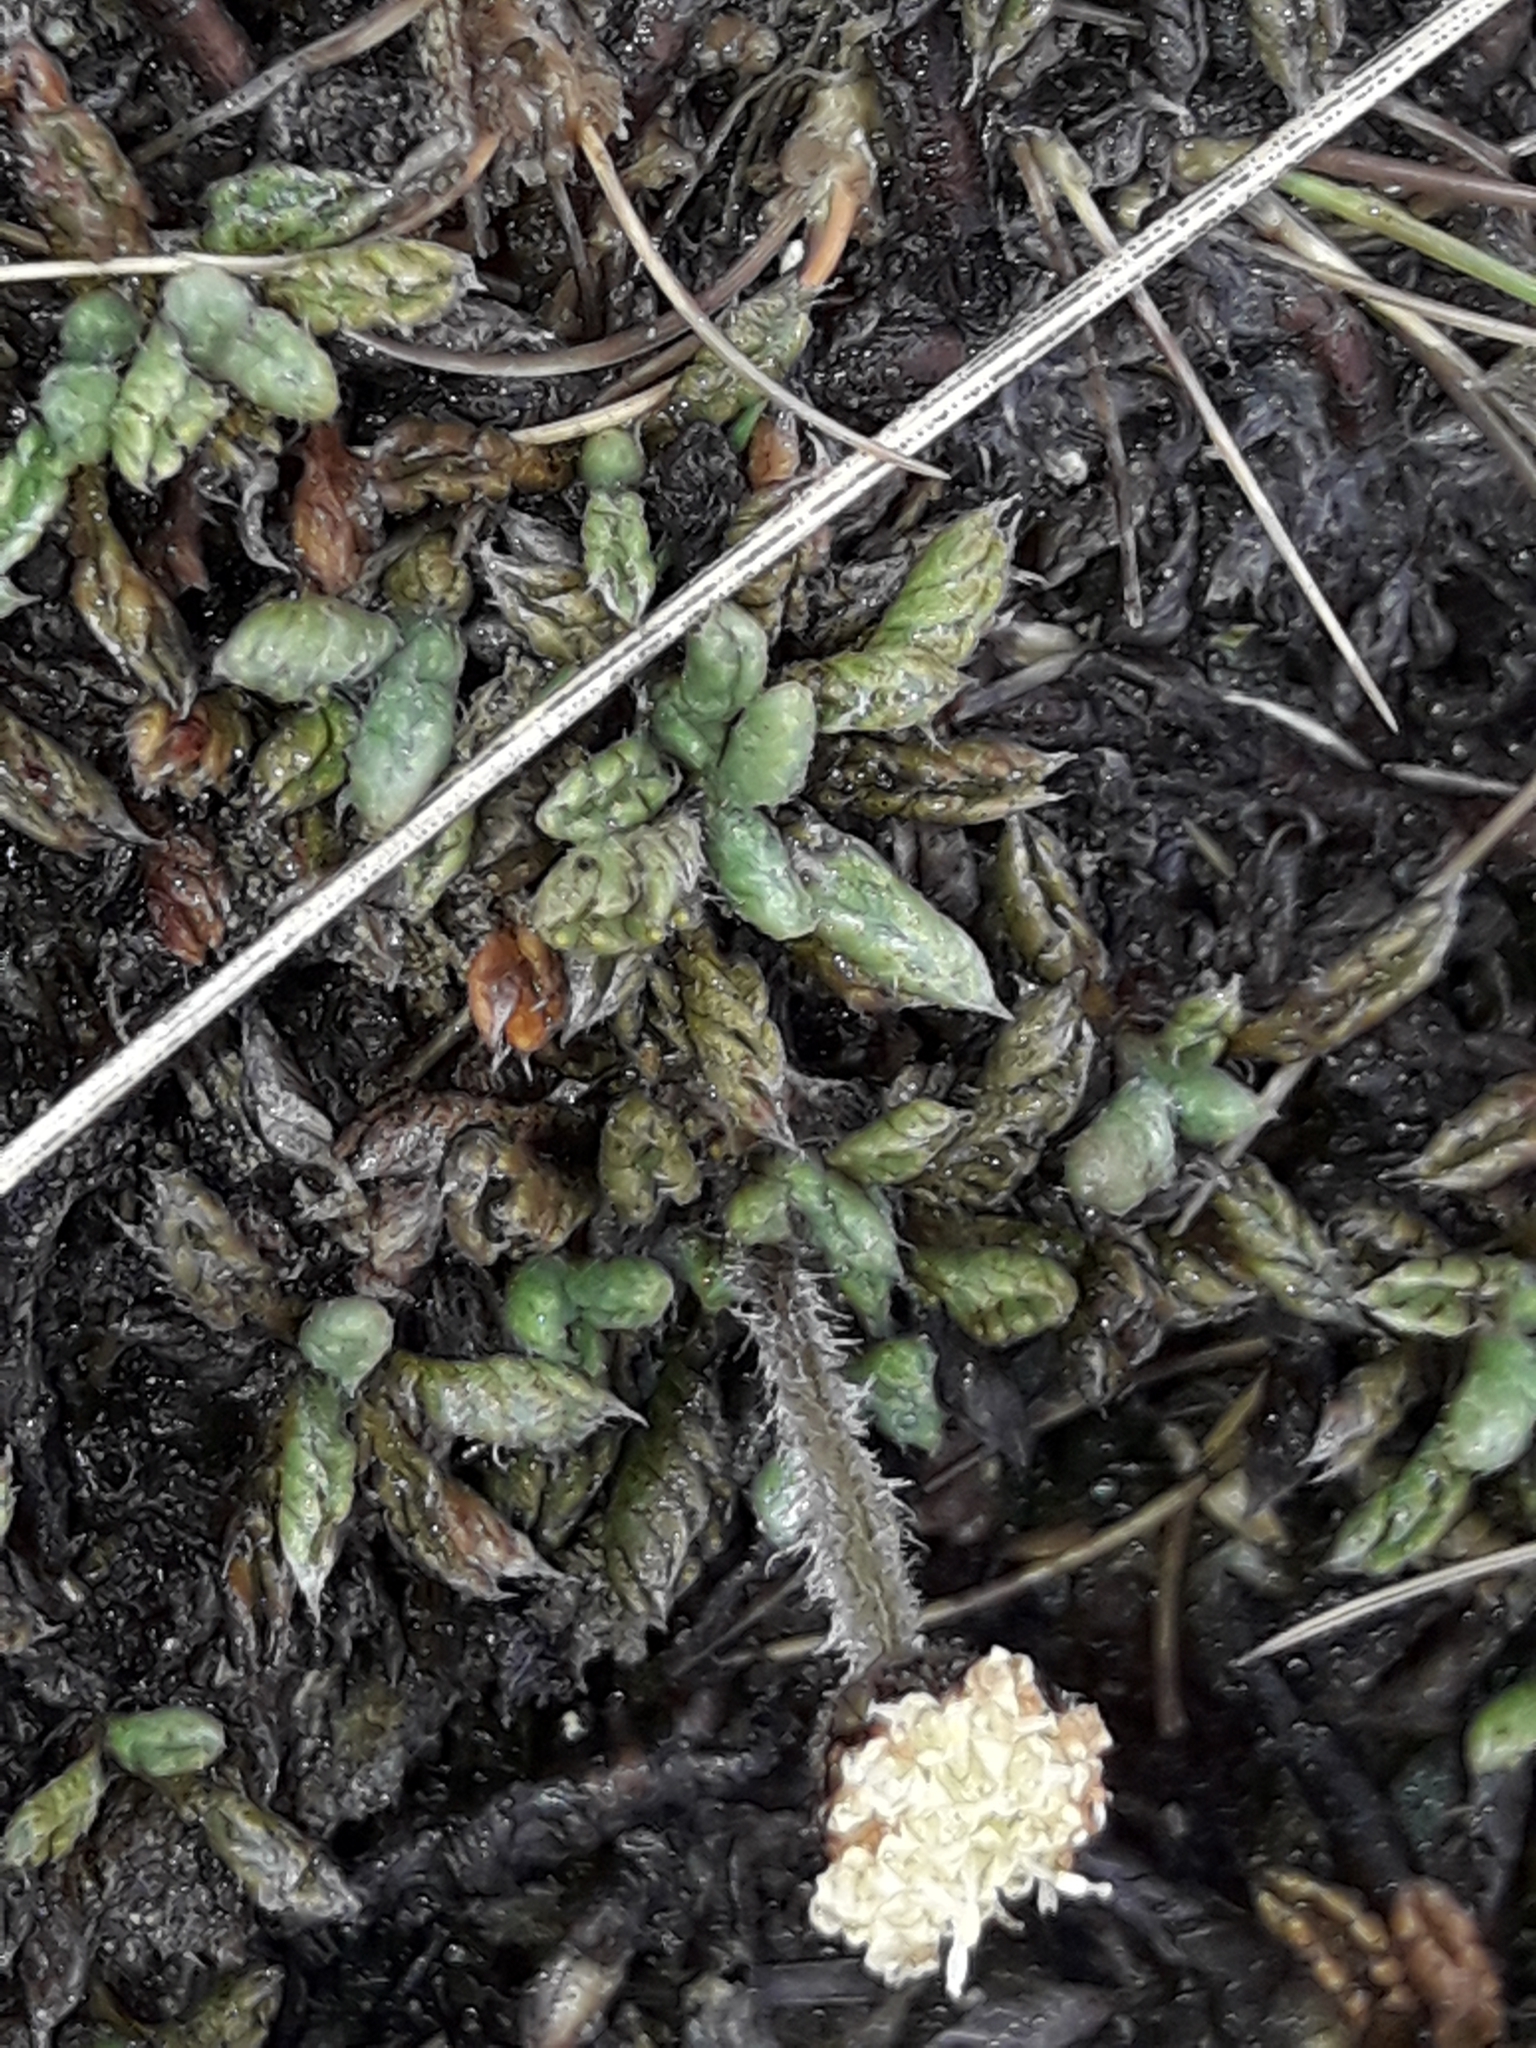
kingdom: Plantae
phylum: Tracheophyta
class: Magnoliopsida
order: Asterales
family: Asteraceae
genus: Leptinella
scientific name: Leptinella pectinata
